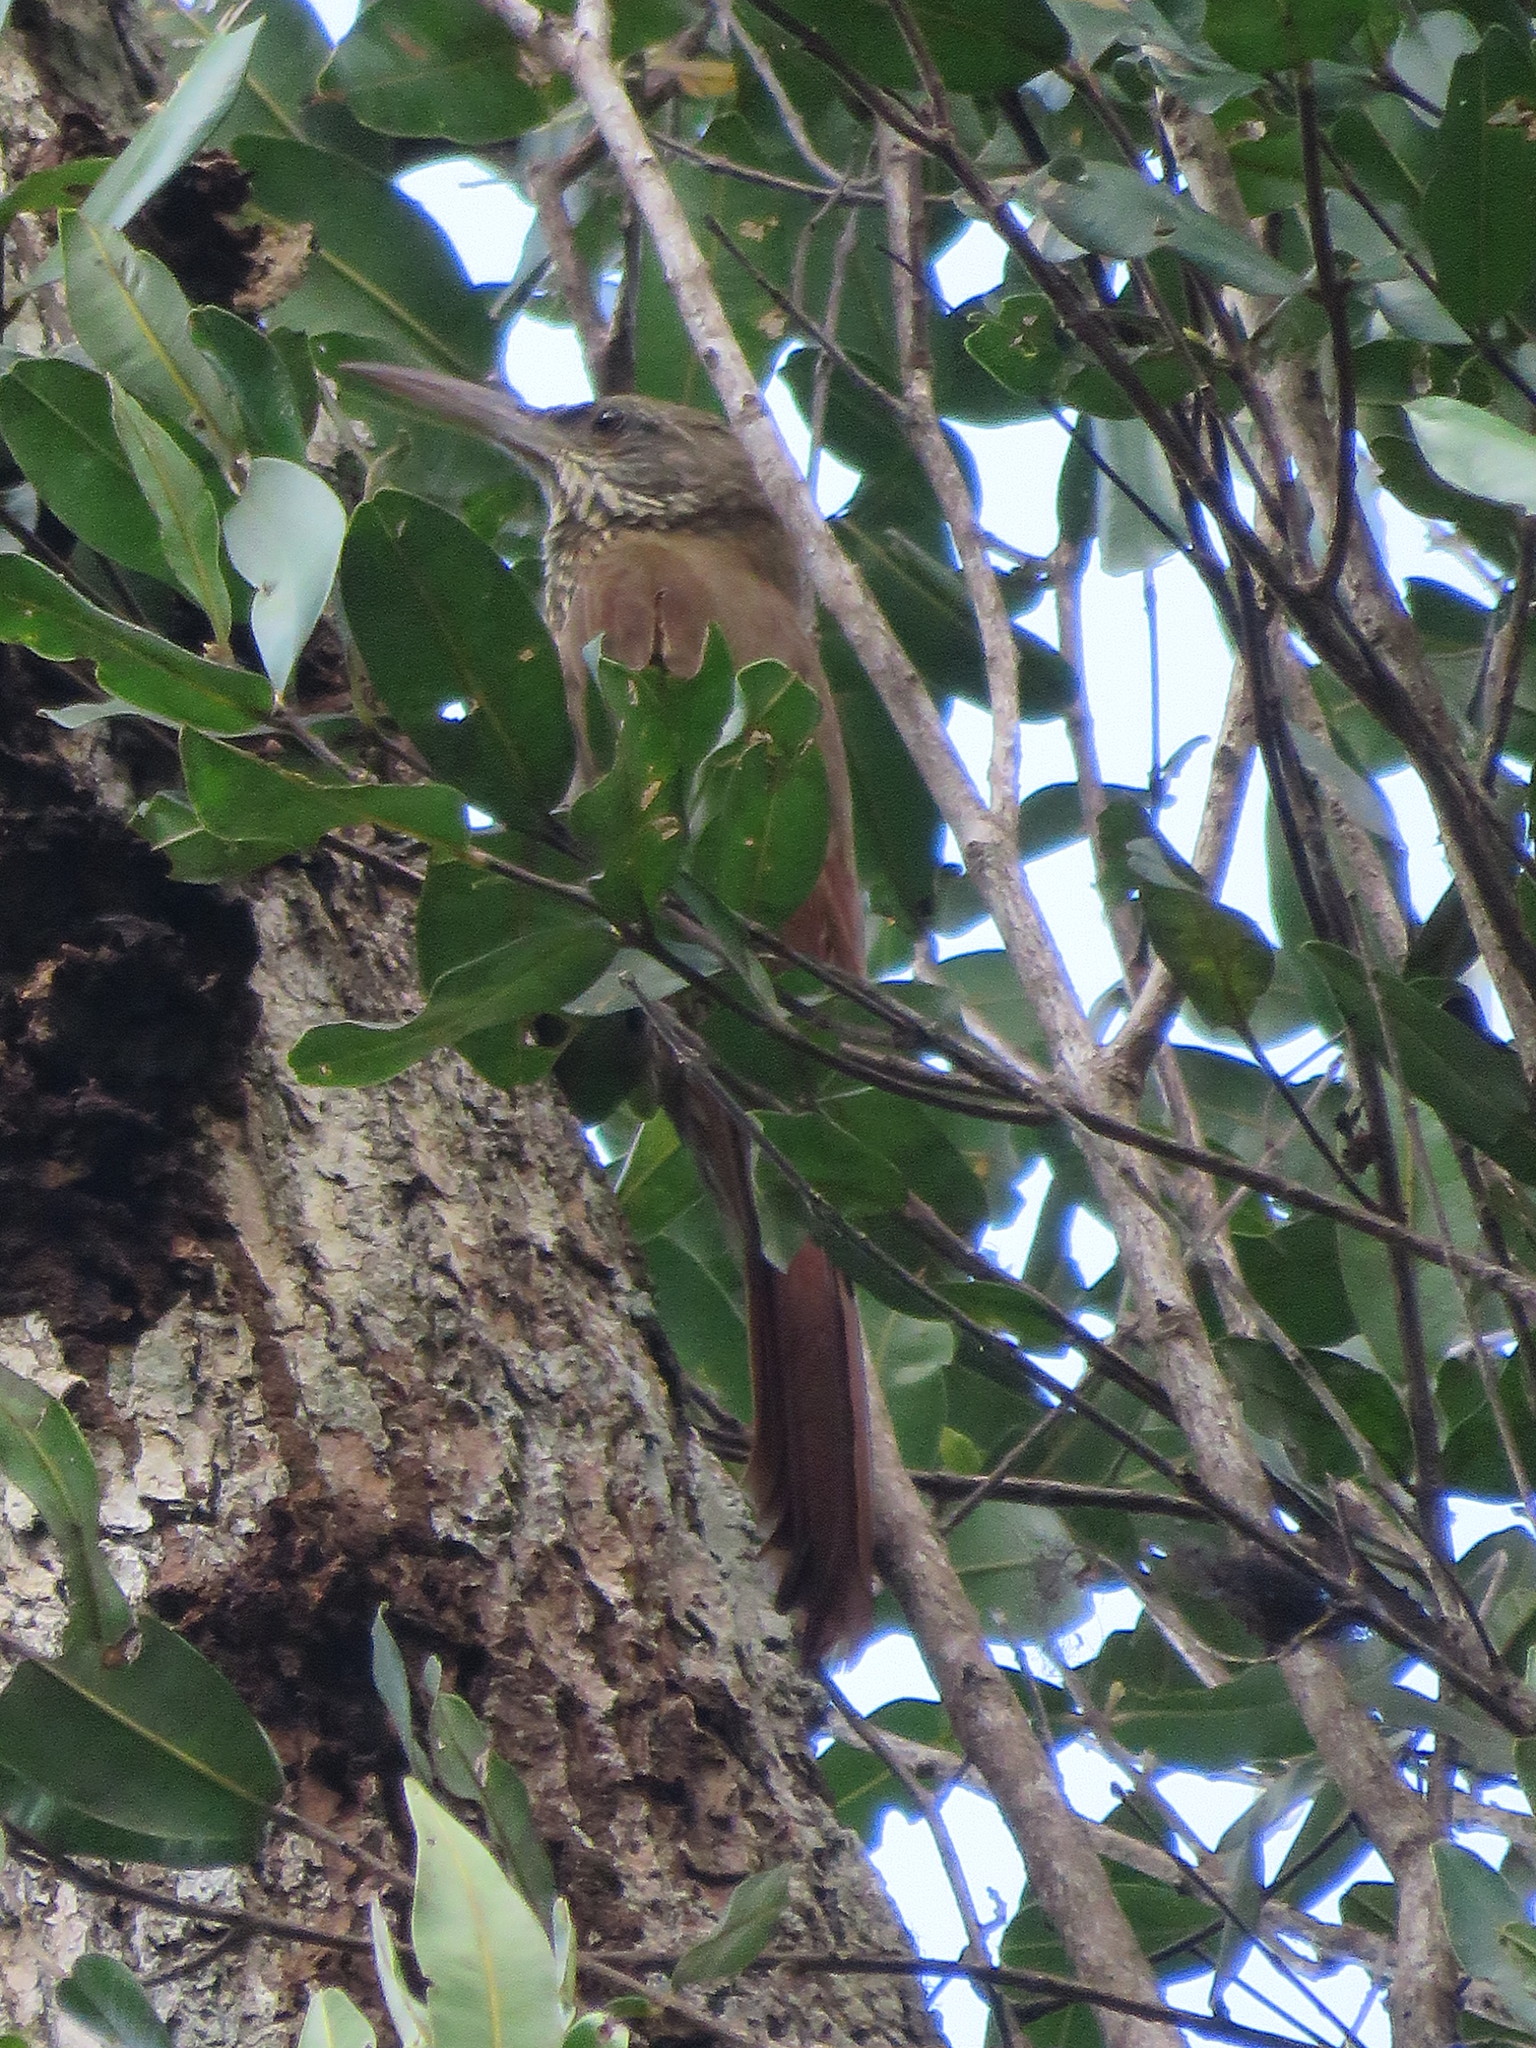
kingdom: Animalia
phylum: Chordata
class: Aves
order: Passeriformes
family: Furnariidae
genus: Xiphocolaptes
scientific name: Xiphocolaptes promeropirhynchus
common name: Strong-billed woodcreeper
